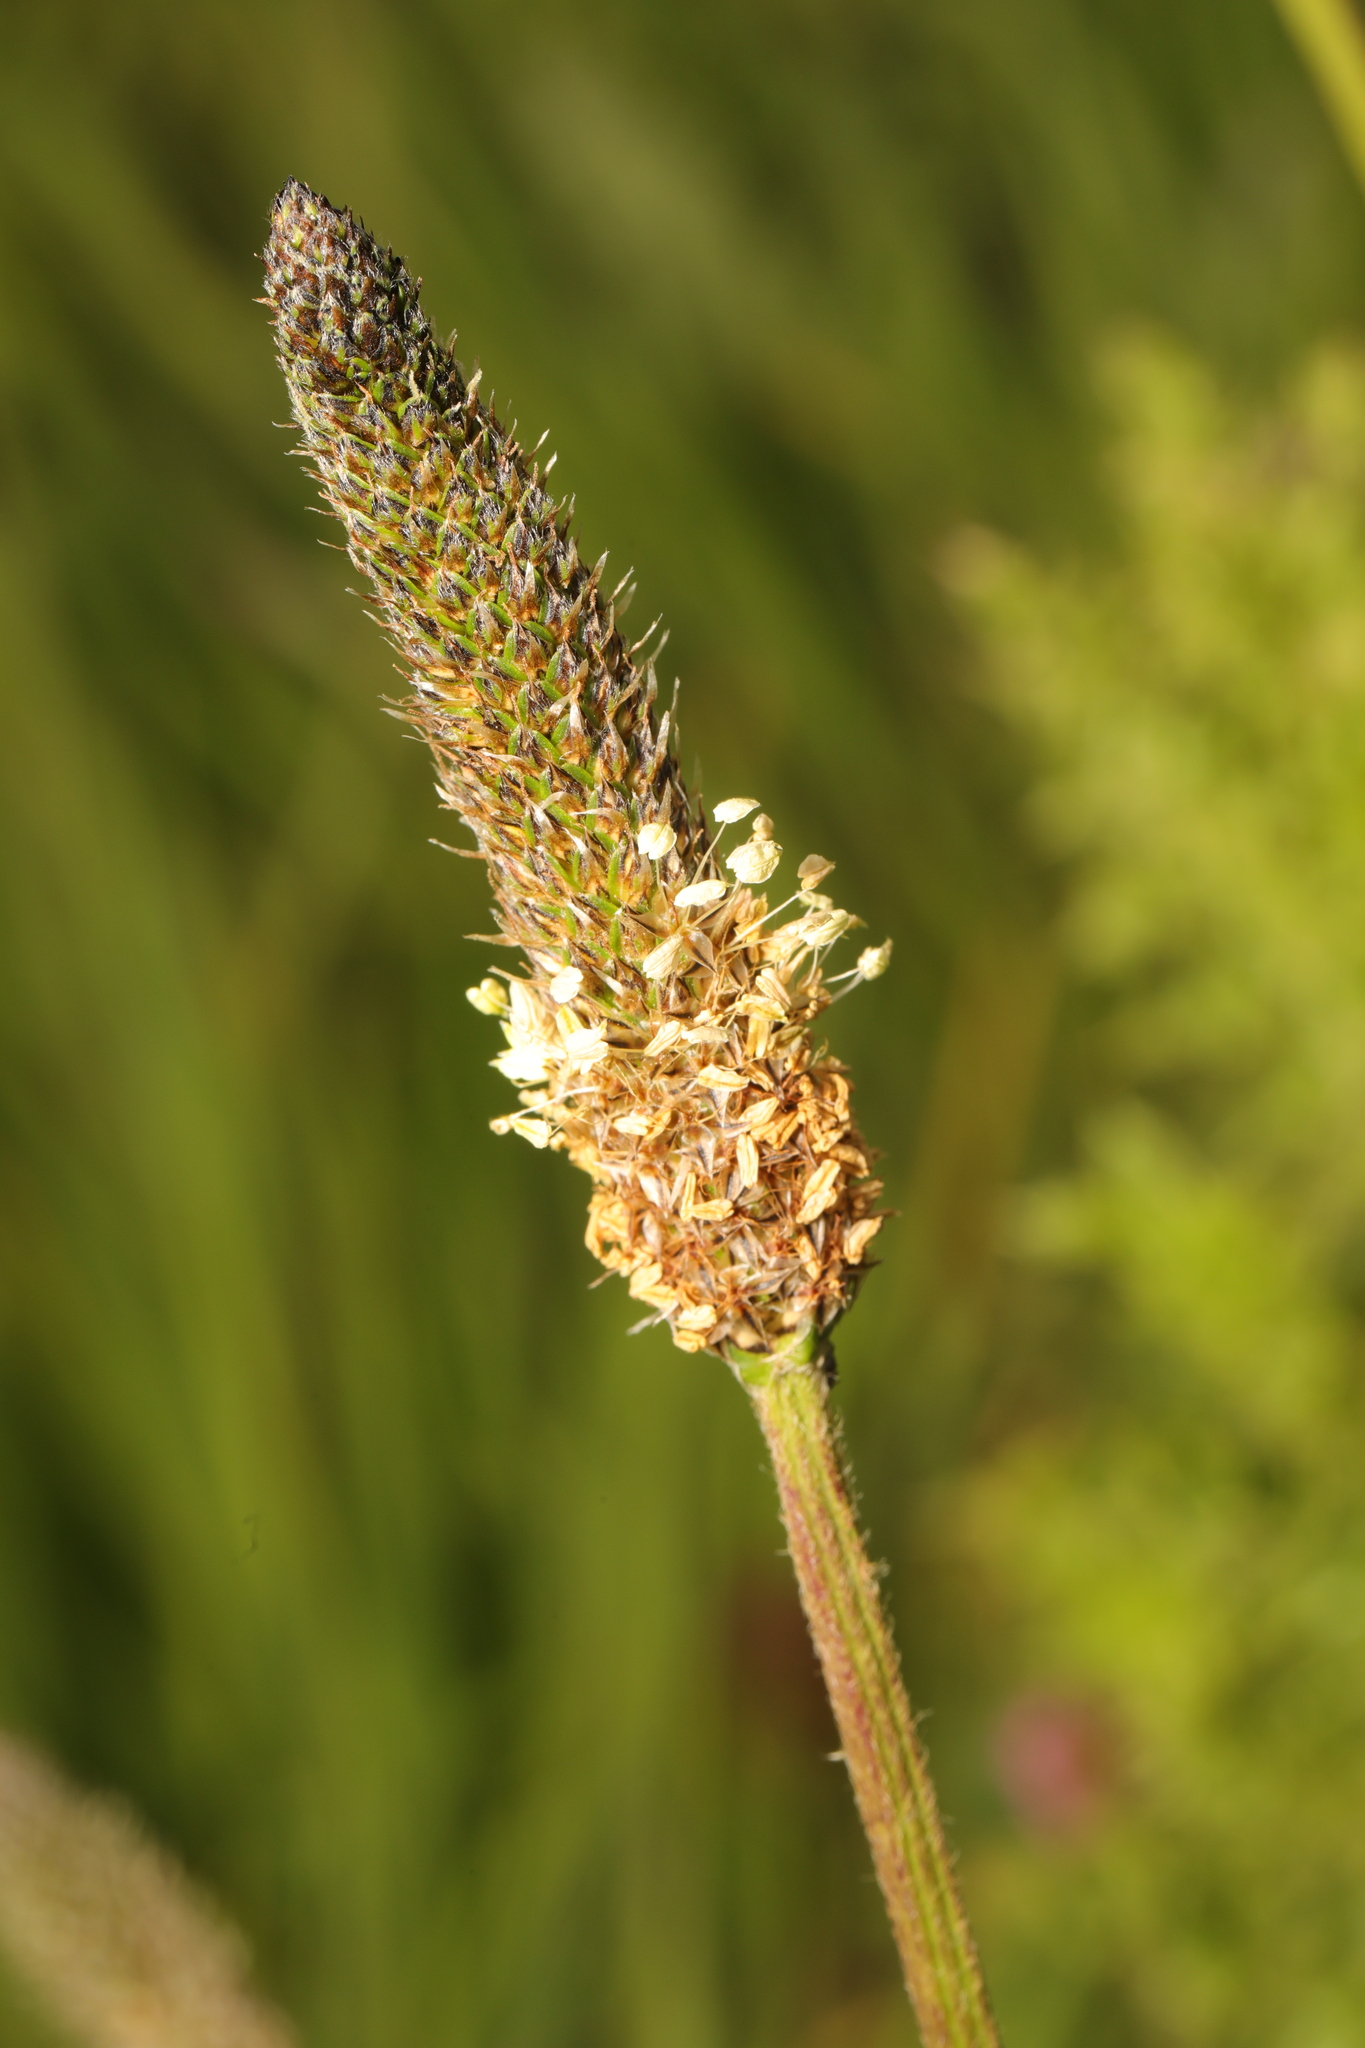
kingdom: Plantae
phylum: Tracheophyta
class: Magnoliopsida
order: Lamiales
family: Plantaginaceae
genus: Plantago
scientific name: Plantago lanceolata
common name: Ribwort plantain
